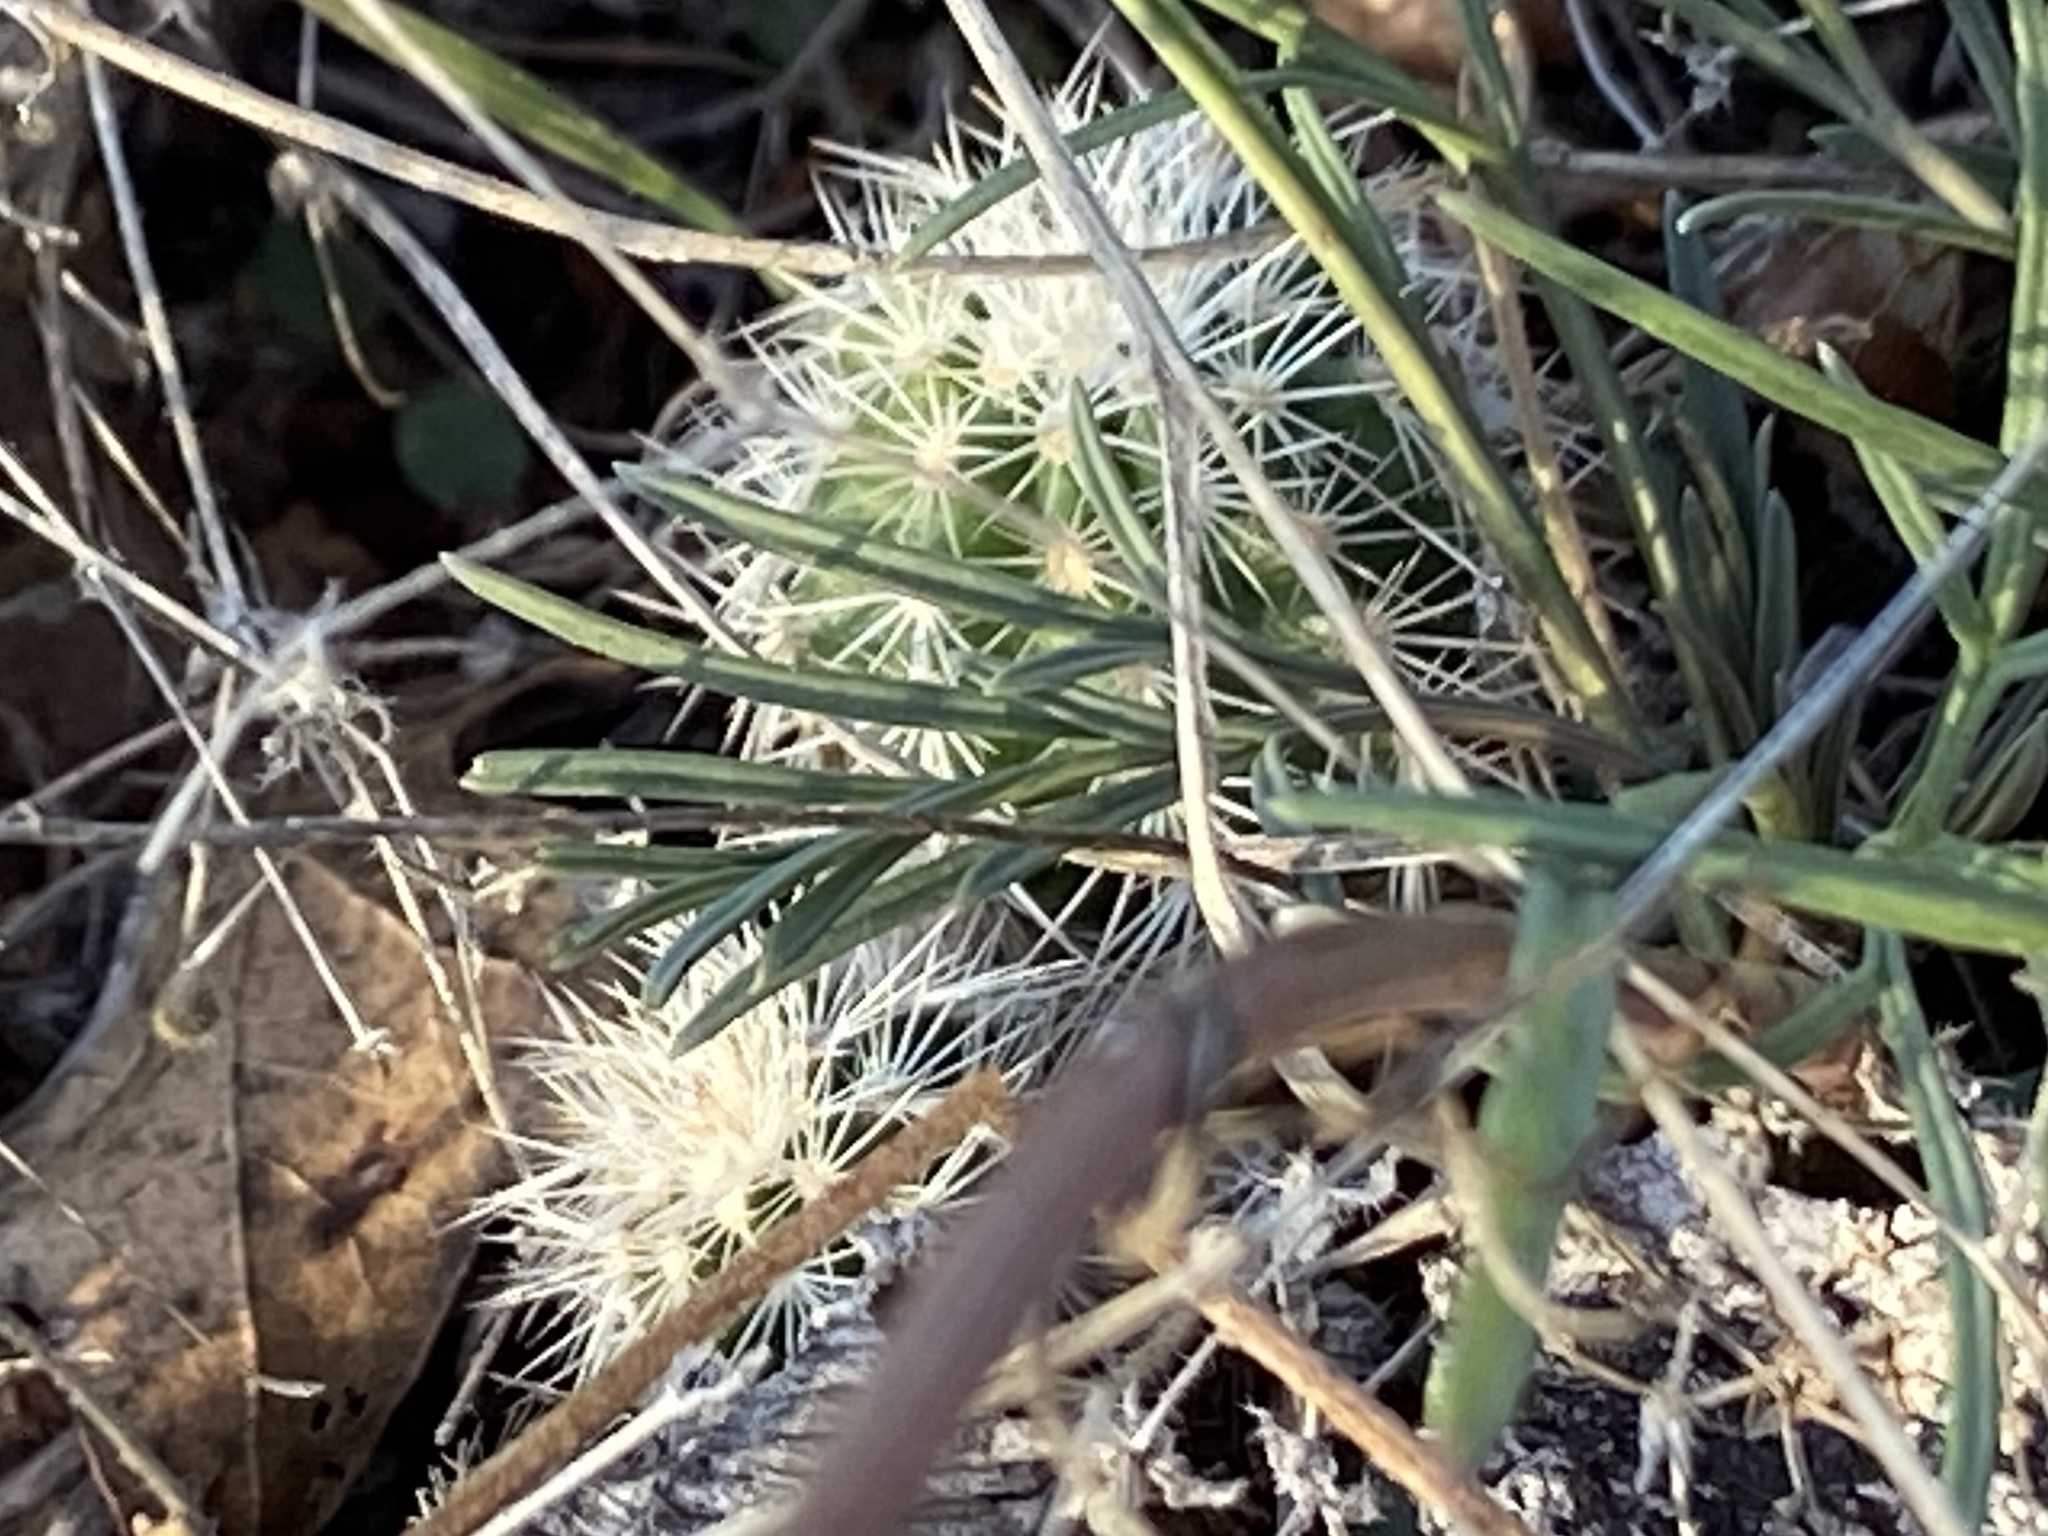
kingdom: Plantae
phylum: Tracheophyta
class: Magnoliopsida
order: Caryophyllales
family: Cactaceae
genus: Echinocereus
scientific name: Echinocereus reichenbachii
